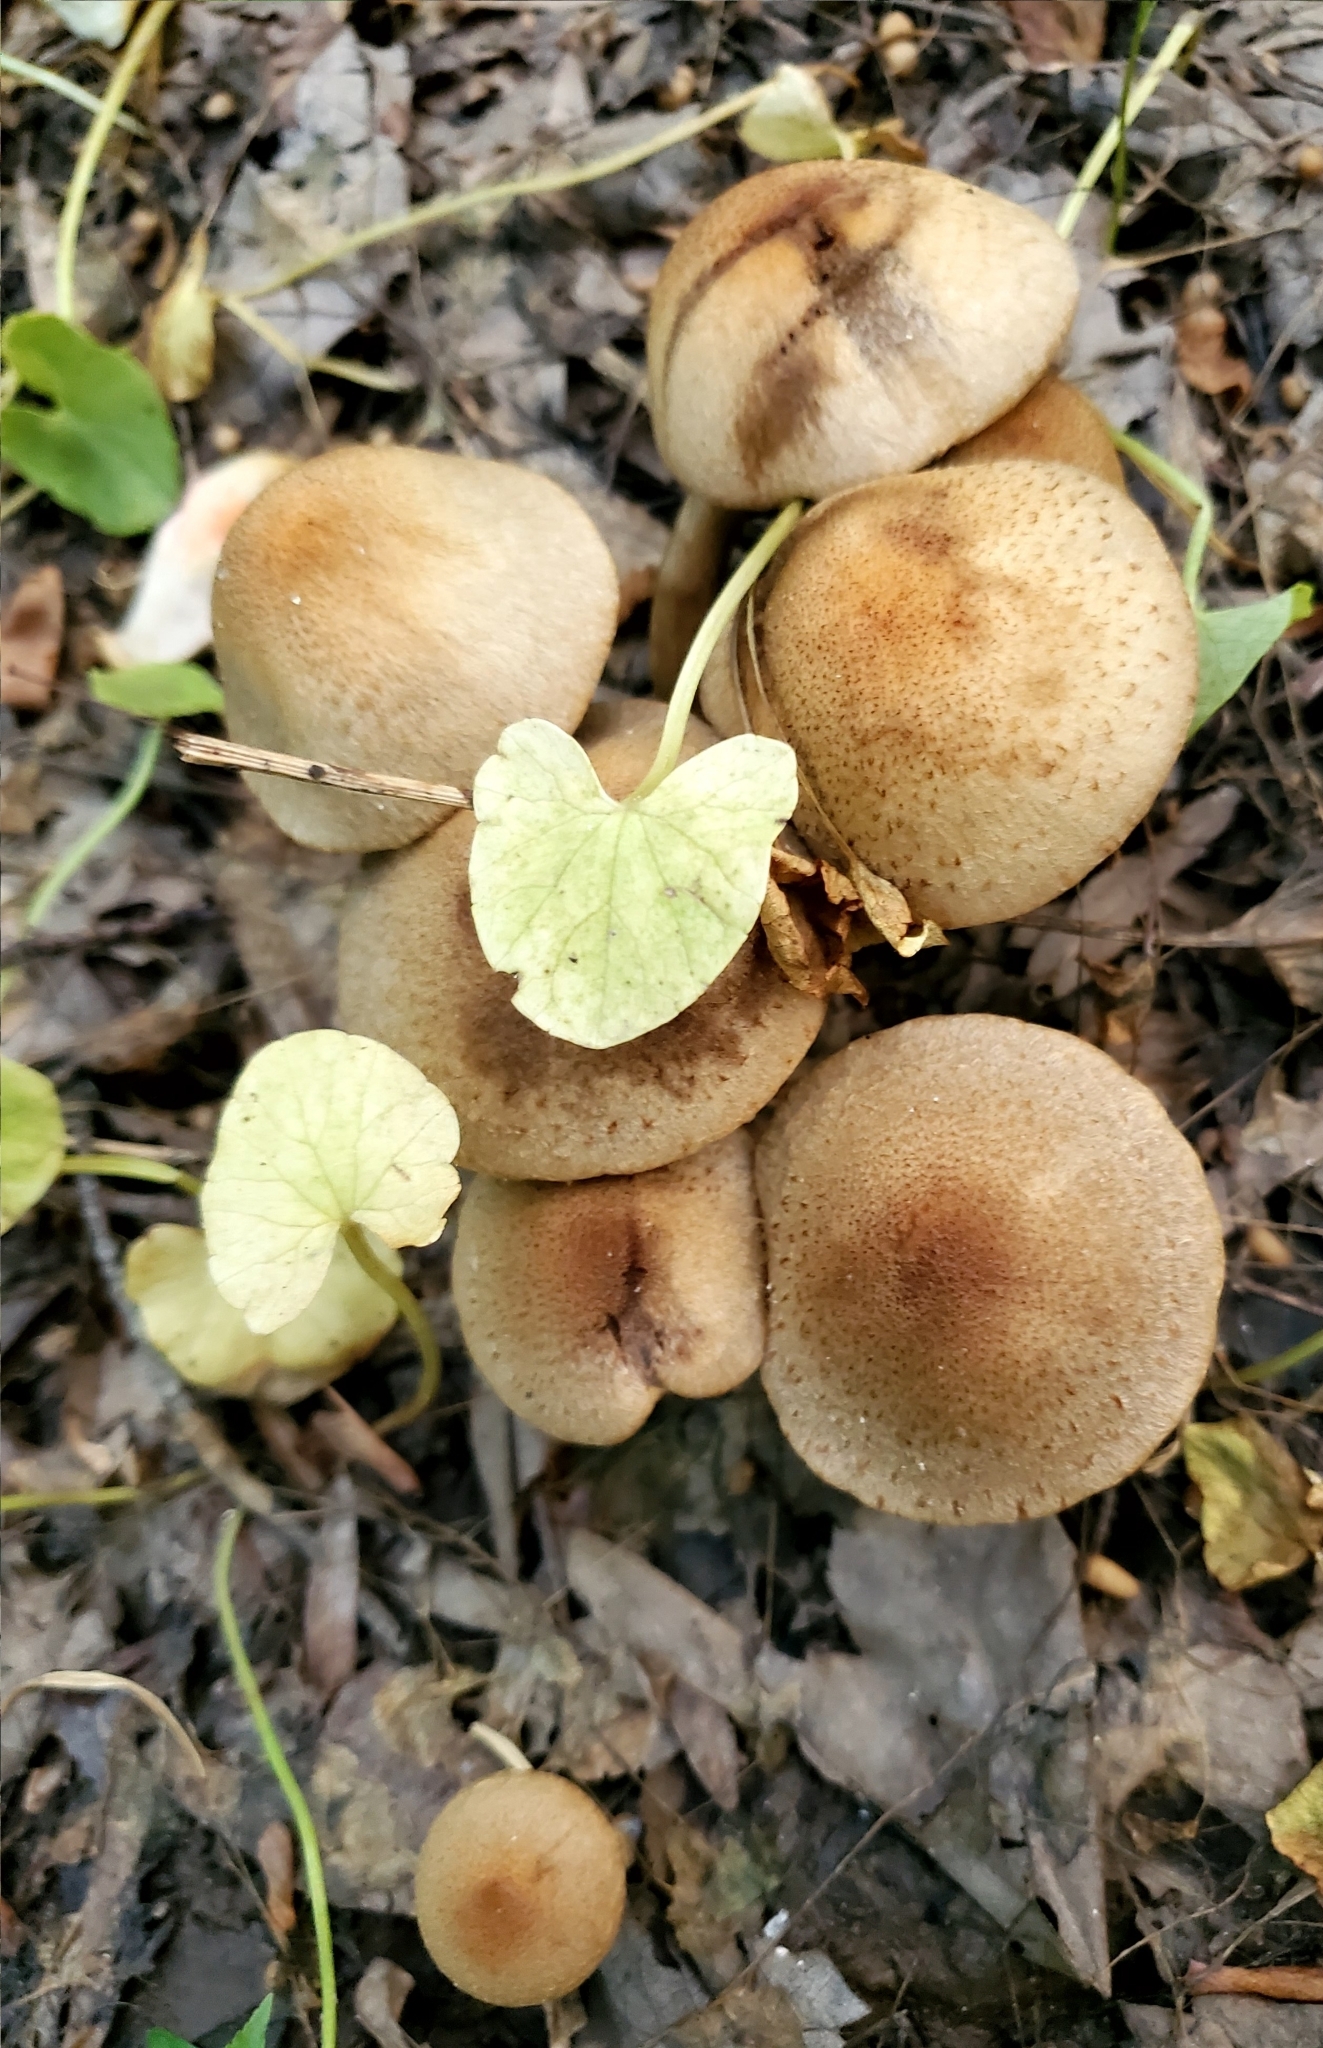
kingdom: Fungi
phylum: Basidiomycota
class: Agaricomycetes
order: Agaricales
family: Psathyrellaceae
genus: Lacrymaria
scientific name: Lacrymaria lacrymabunda
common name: Weeping widow
